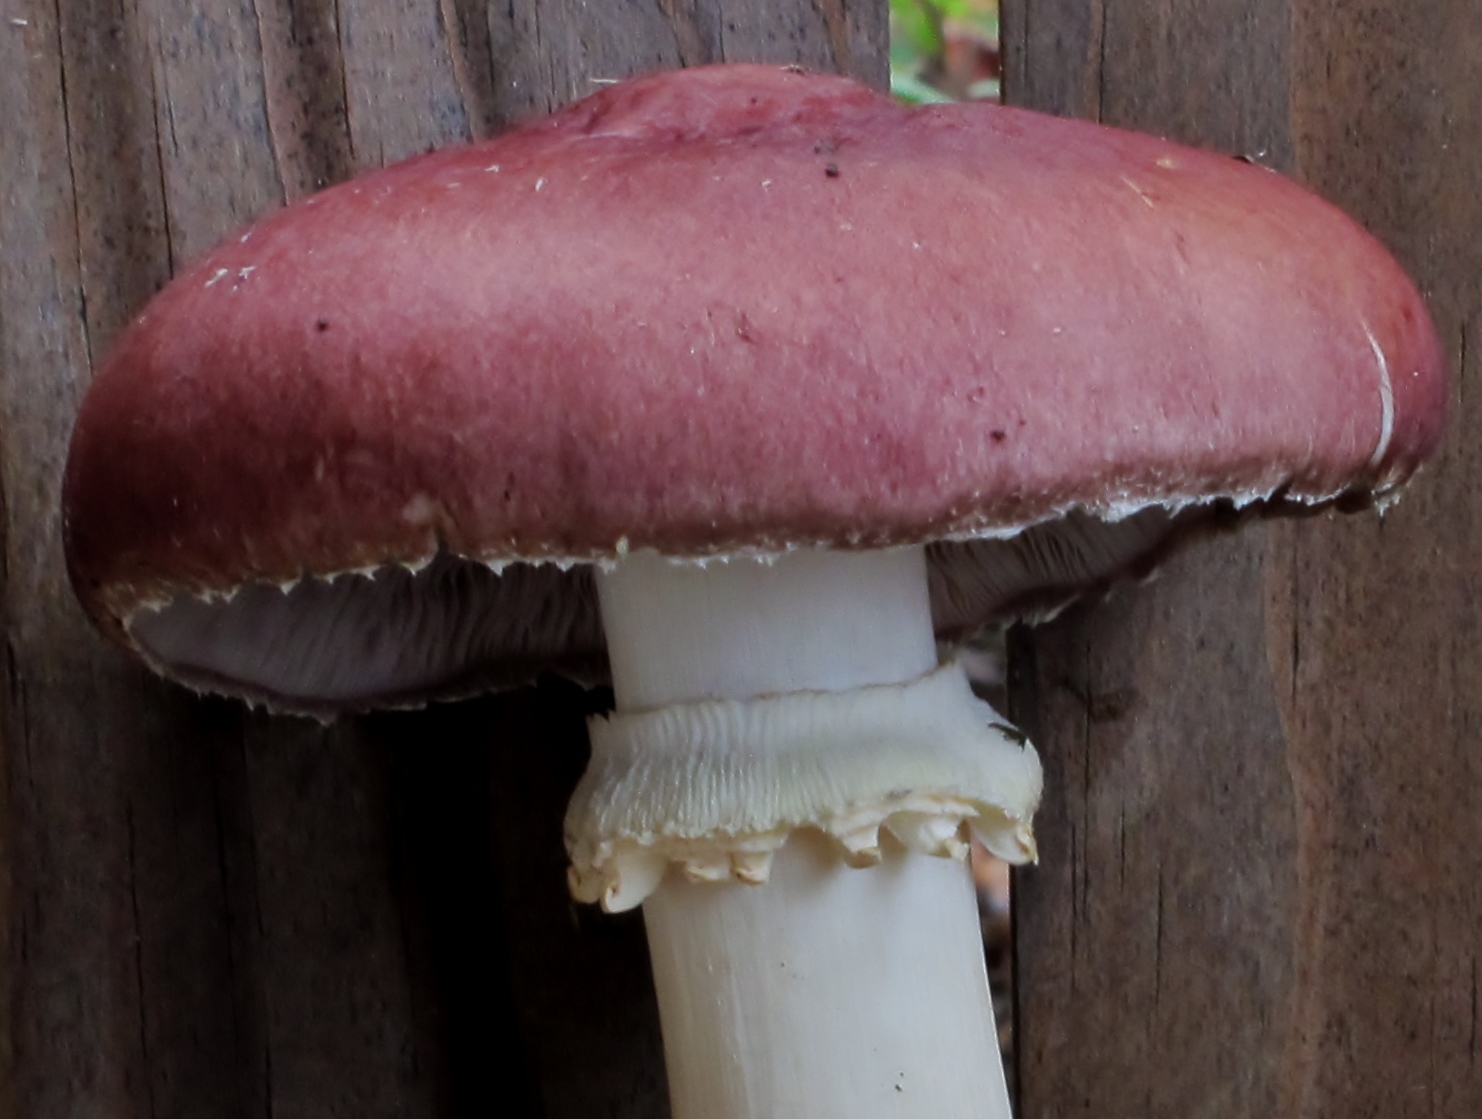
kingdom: Fungi
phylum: Basidiomycota
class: Agaricomycetes
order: Agaricales
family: Strophariaceae
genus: Stropharia
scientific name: Stropharia rugosoannulata
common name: Wine roundhead
